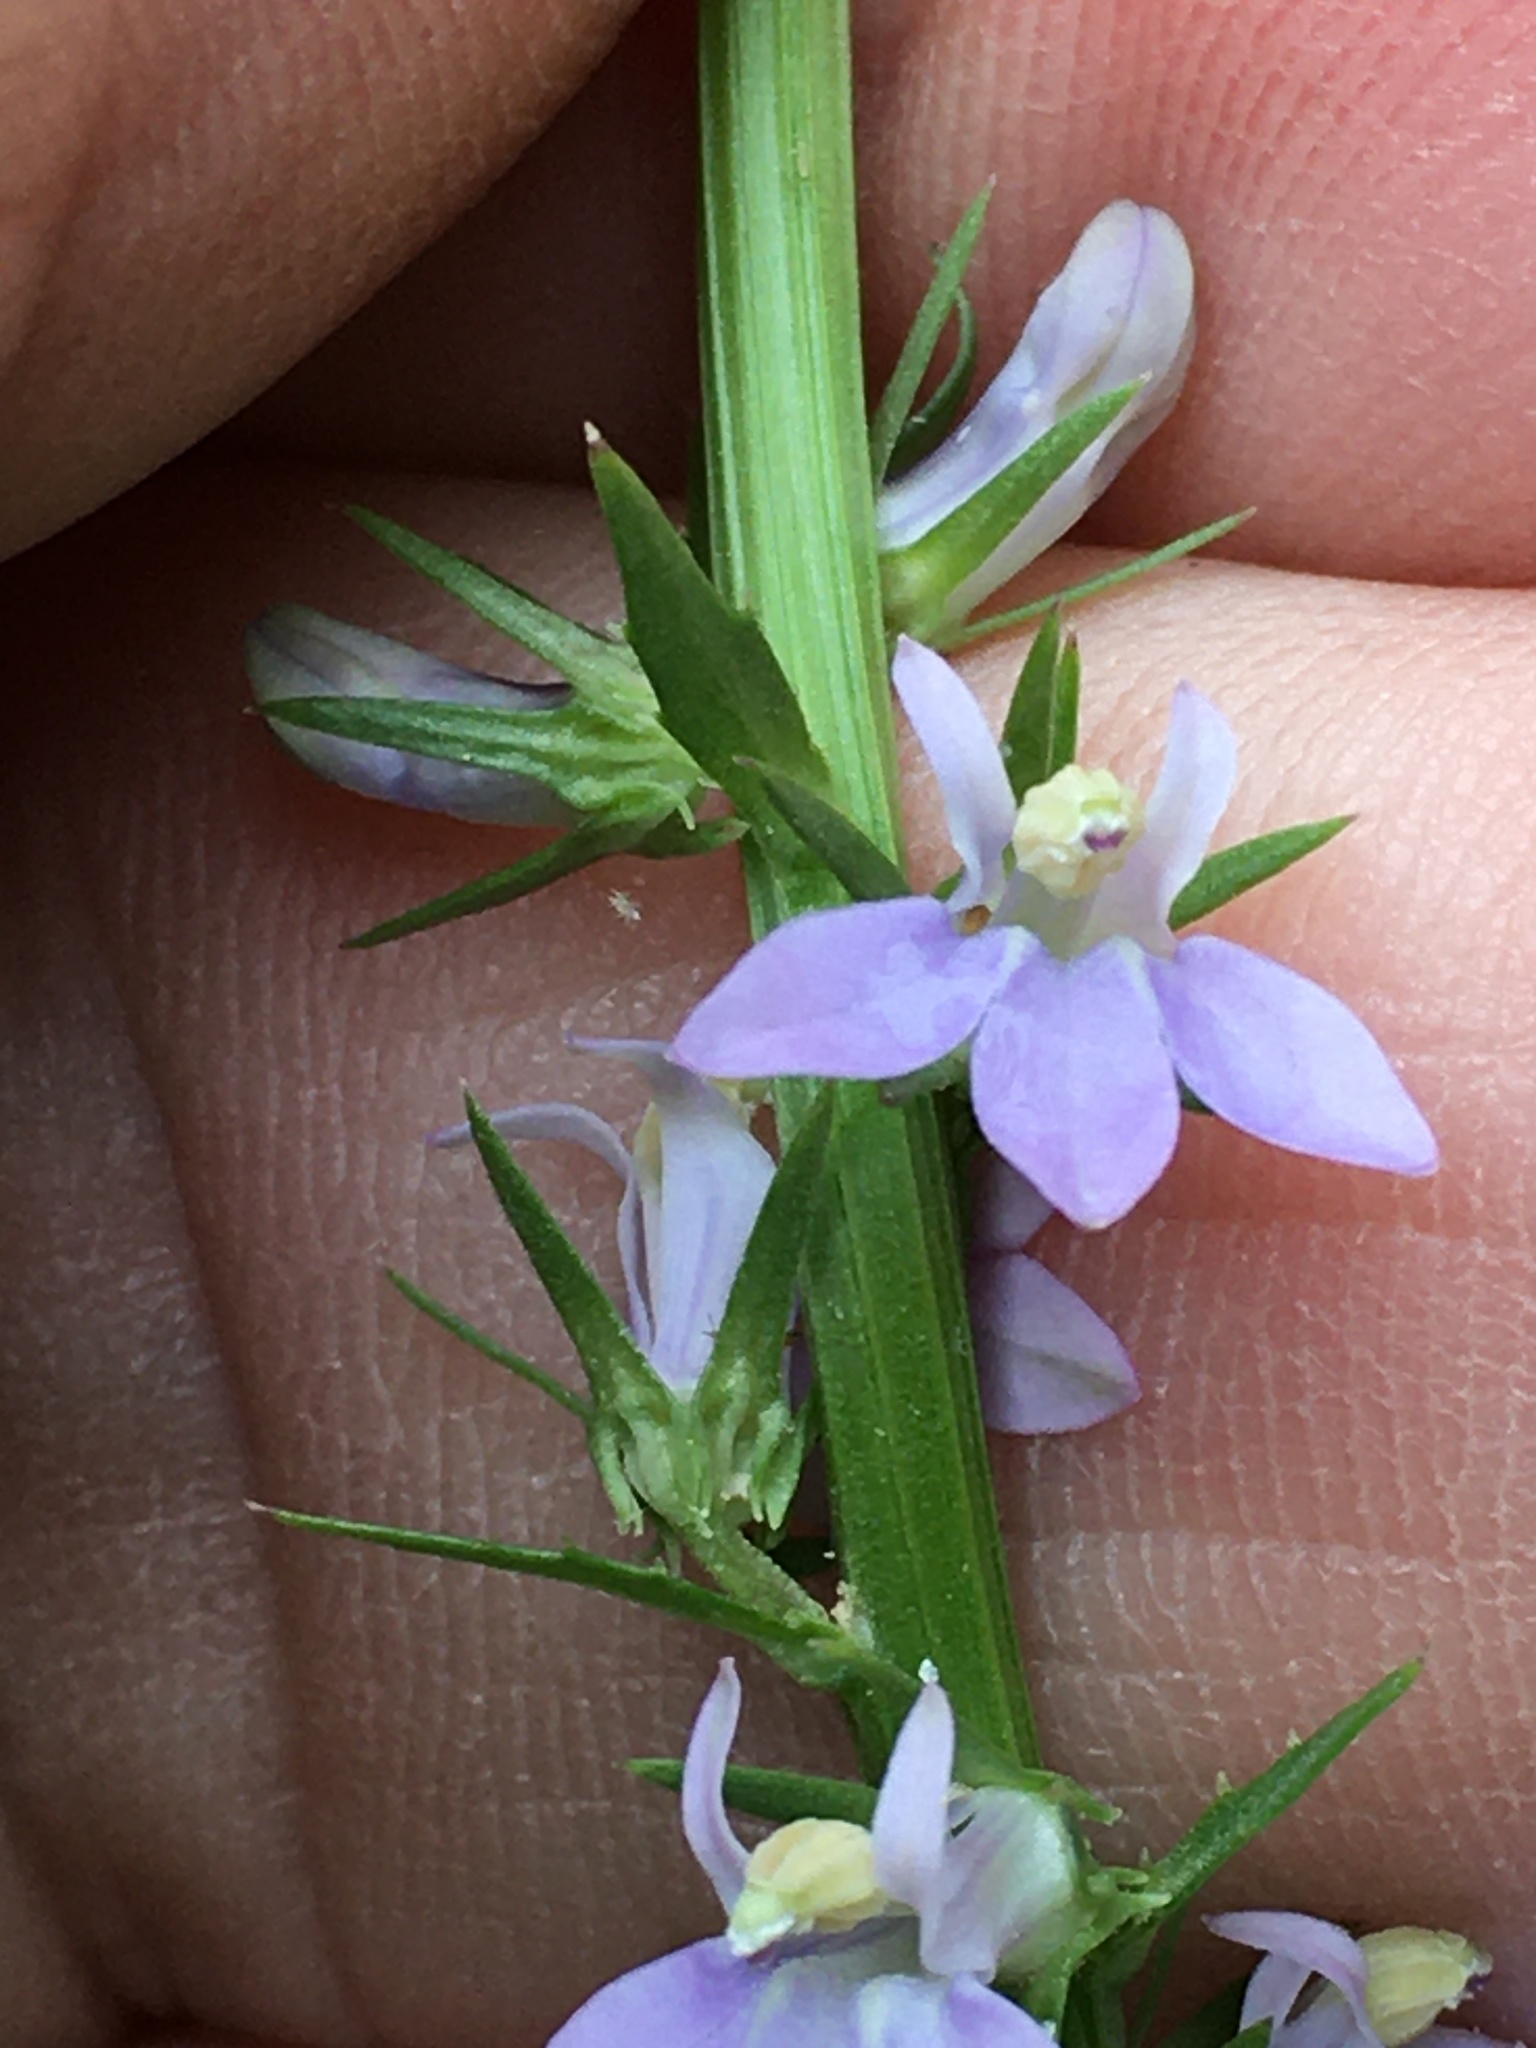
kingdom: Plantae
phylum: Tracheophyta
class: Magnoliopsida
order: Asterales
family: Campanulaceae
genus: Lobelia
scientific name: Lobelia spicata
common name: Pale-spike lobelia
